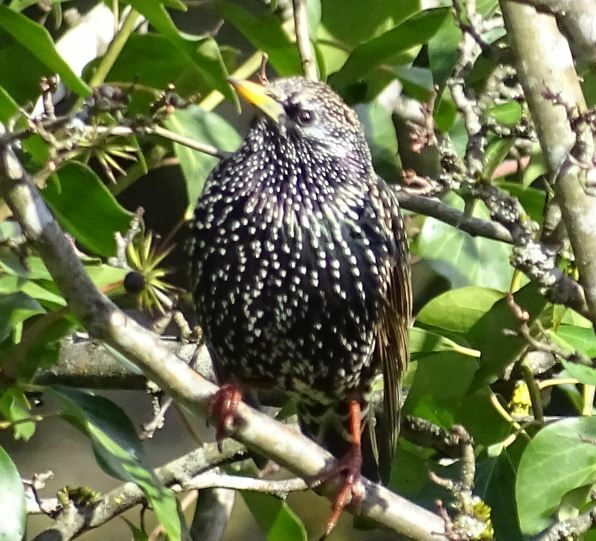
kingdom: Animalia
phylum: Chordata
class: Aves
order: Passeriformes
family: Sturnidae
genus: Sturnus
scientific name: Sturnus vulgaris
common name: Common starling
